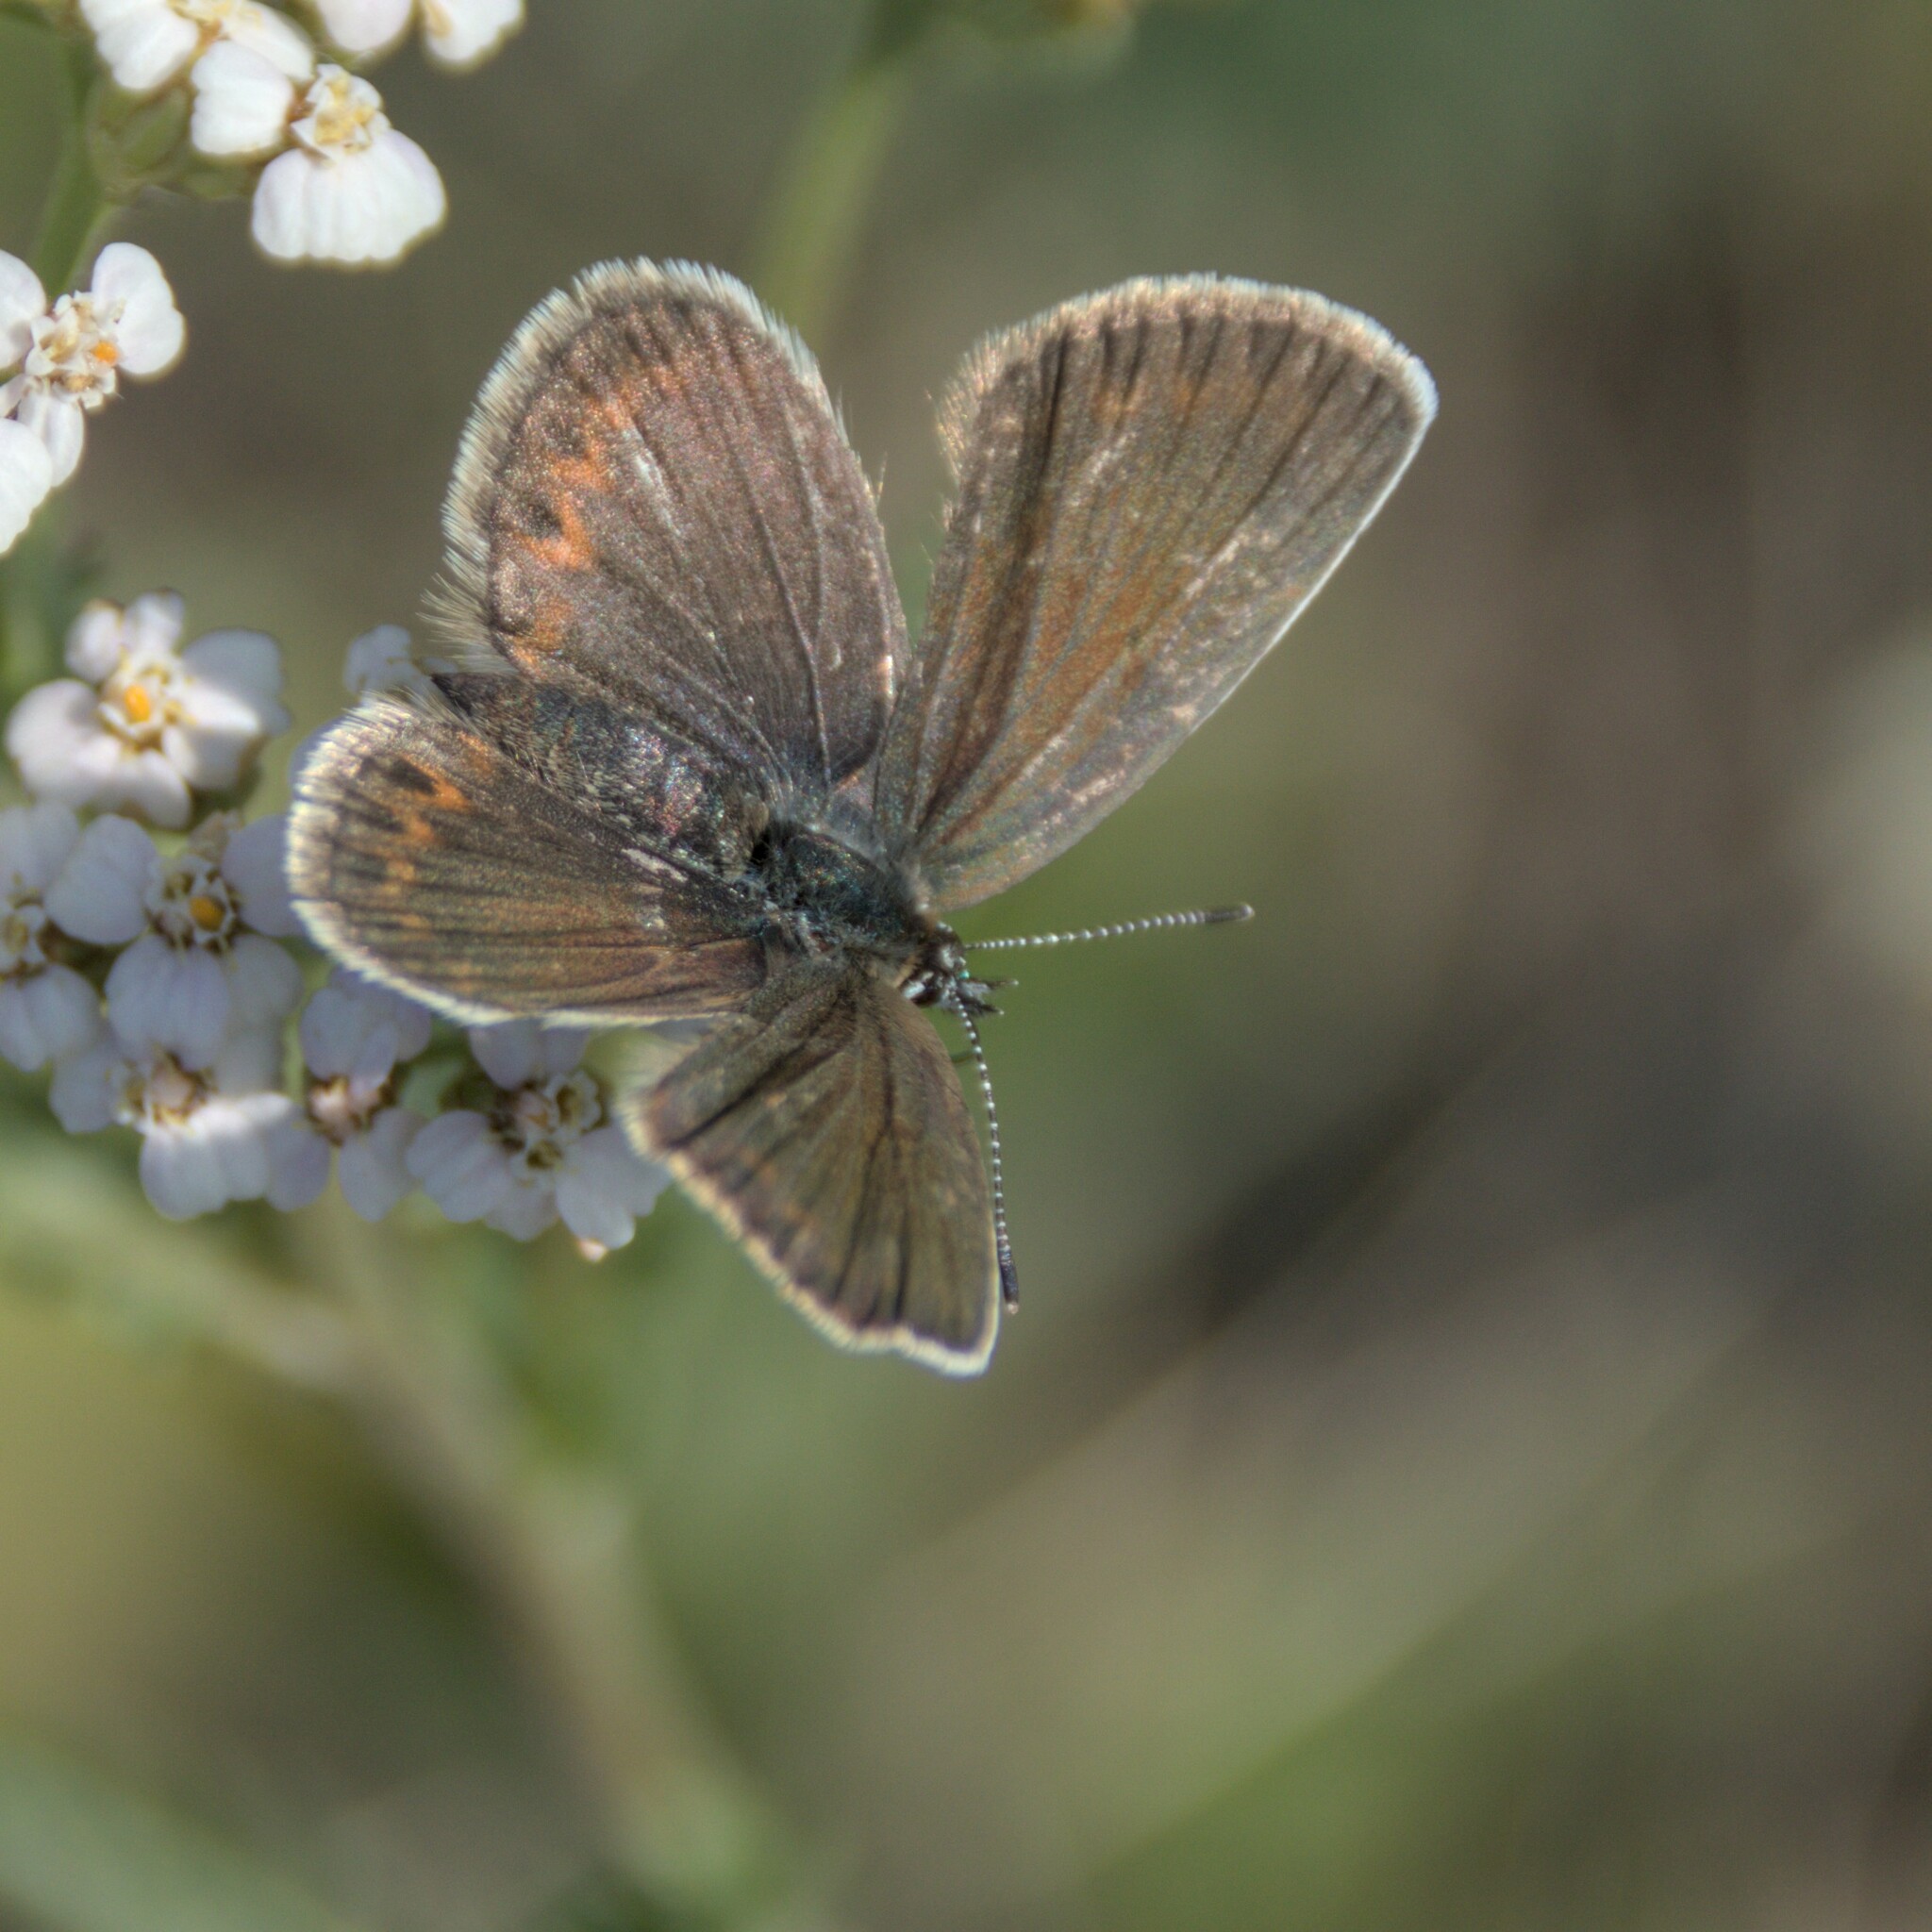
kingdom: Animalia
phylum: Arthropoda
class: Insecta
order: Lepidoptera
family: Lycaenidae
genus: Plebejus
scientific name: Plebejus argus
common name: Silver-studded blue
